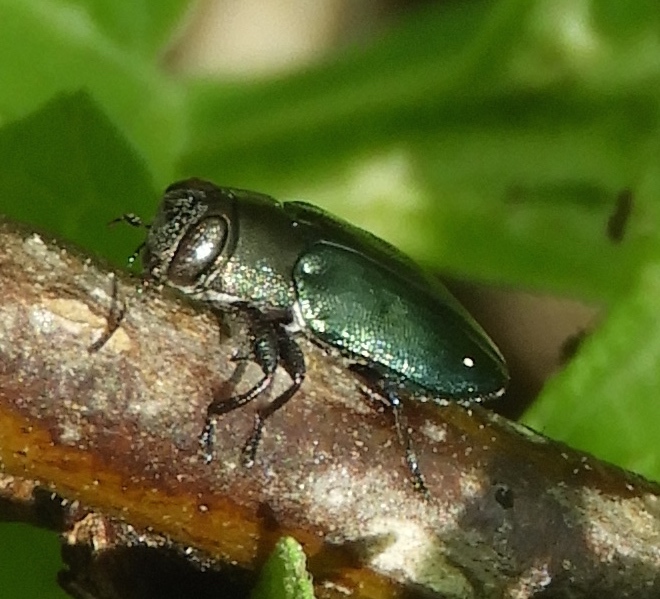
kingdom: Animalia
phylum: Arthropoda
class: Insecta
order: Coleoptera
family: Buprestidae
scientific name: Buprestidae
